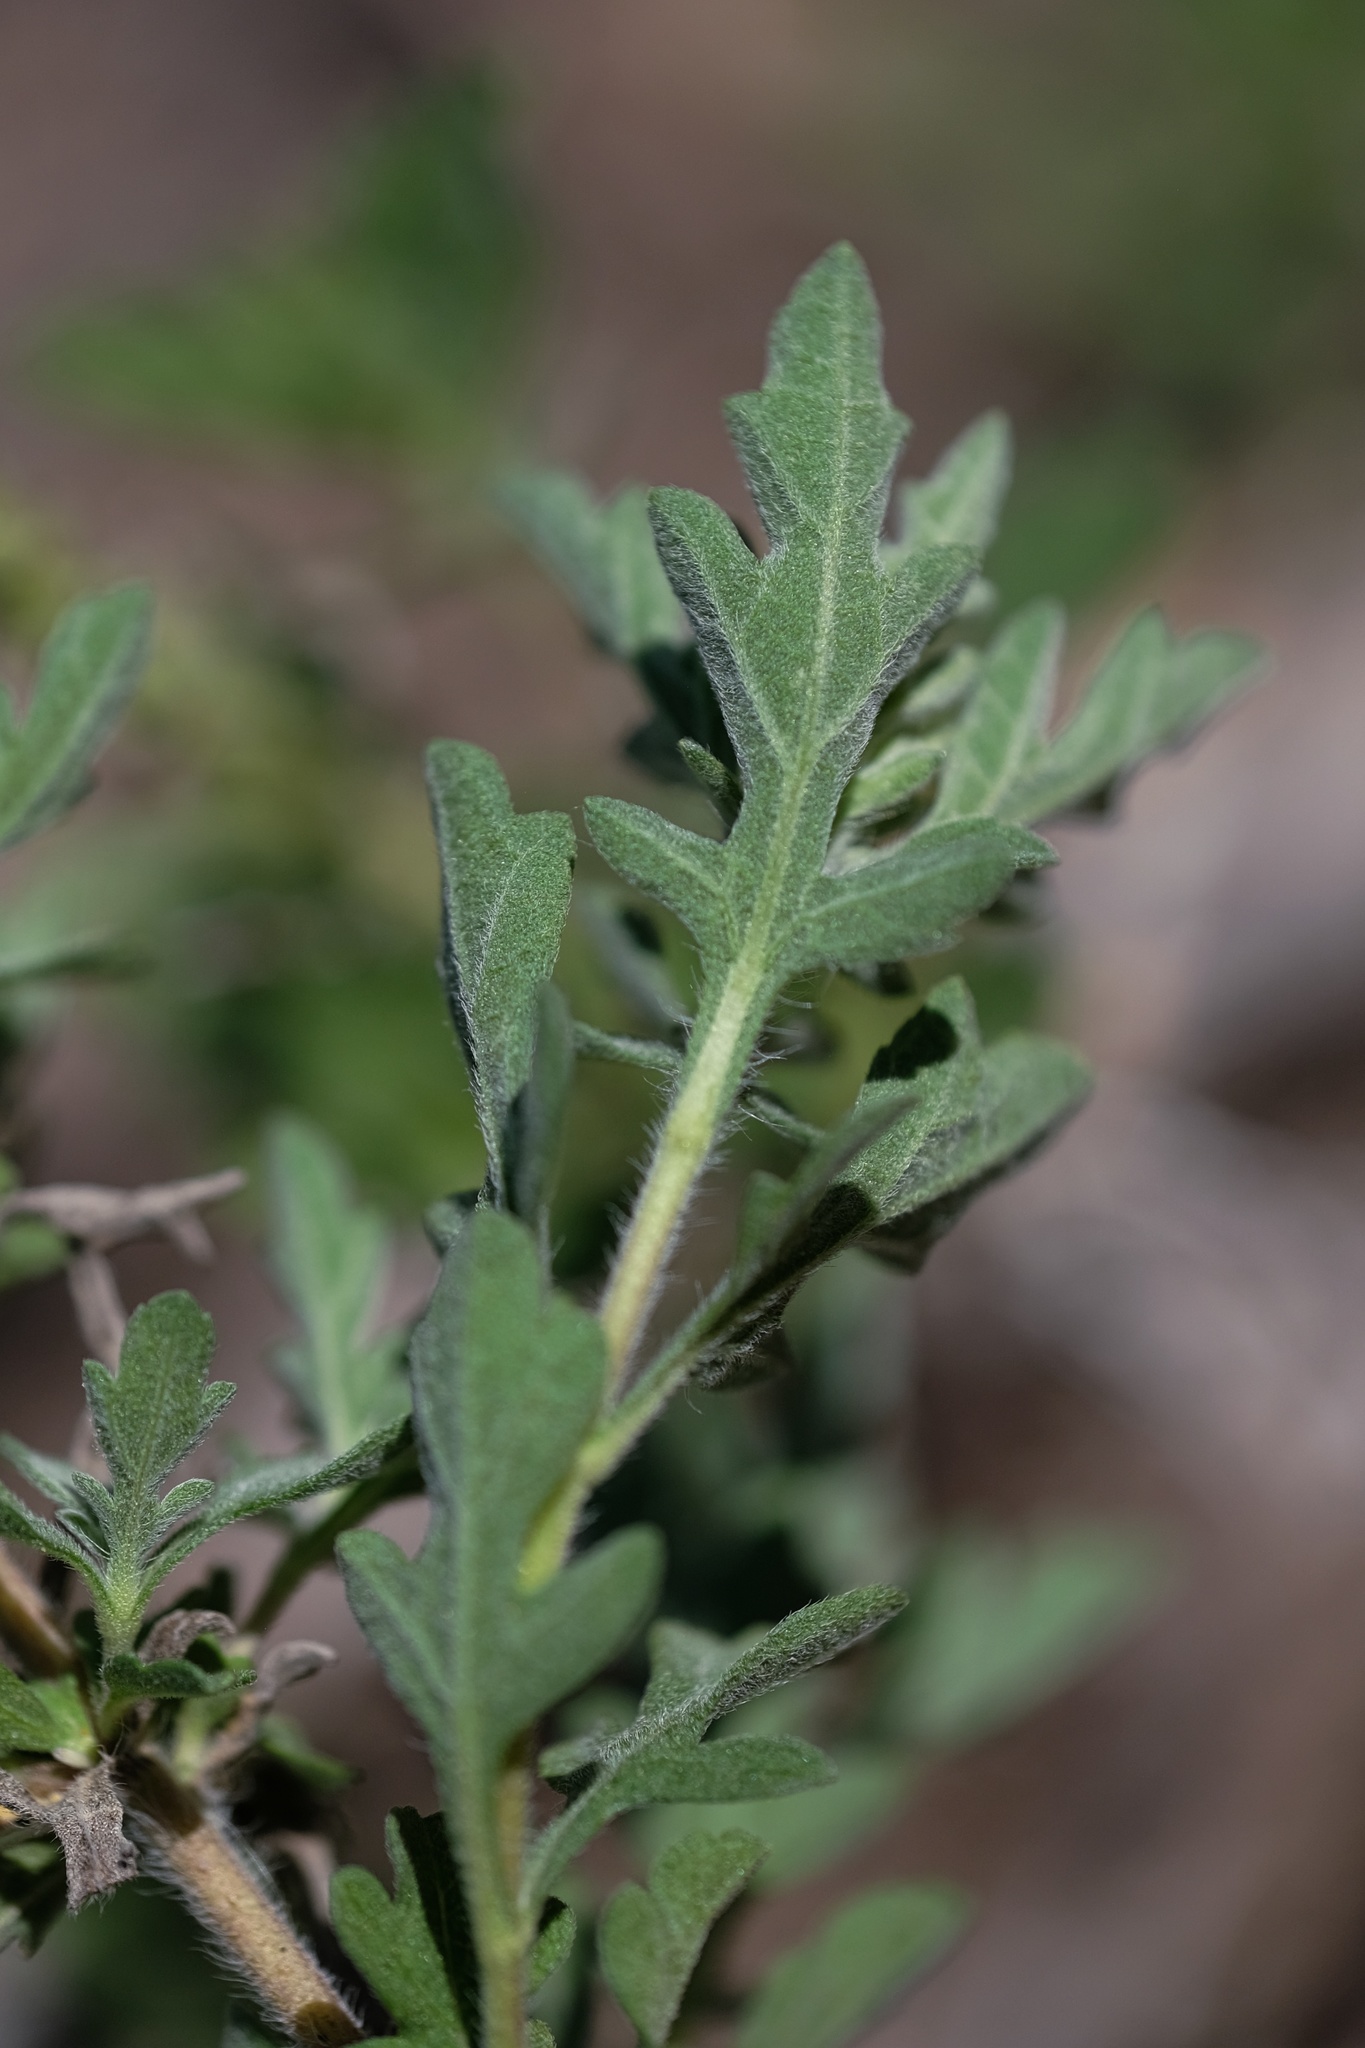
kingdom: Plantae
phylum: Tracheophyta
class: Magnoliopsida
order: Asterales
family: Asteraceae
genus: Ambrosia
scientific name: Ambrosia psilostachya
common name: Perennial ragweed
